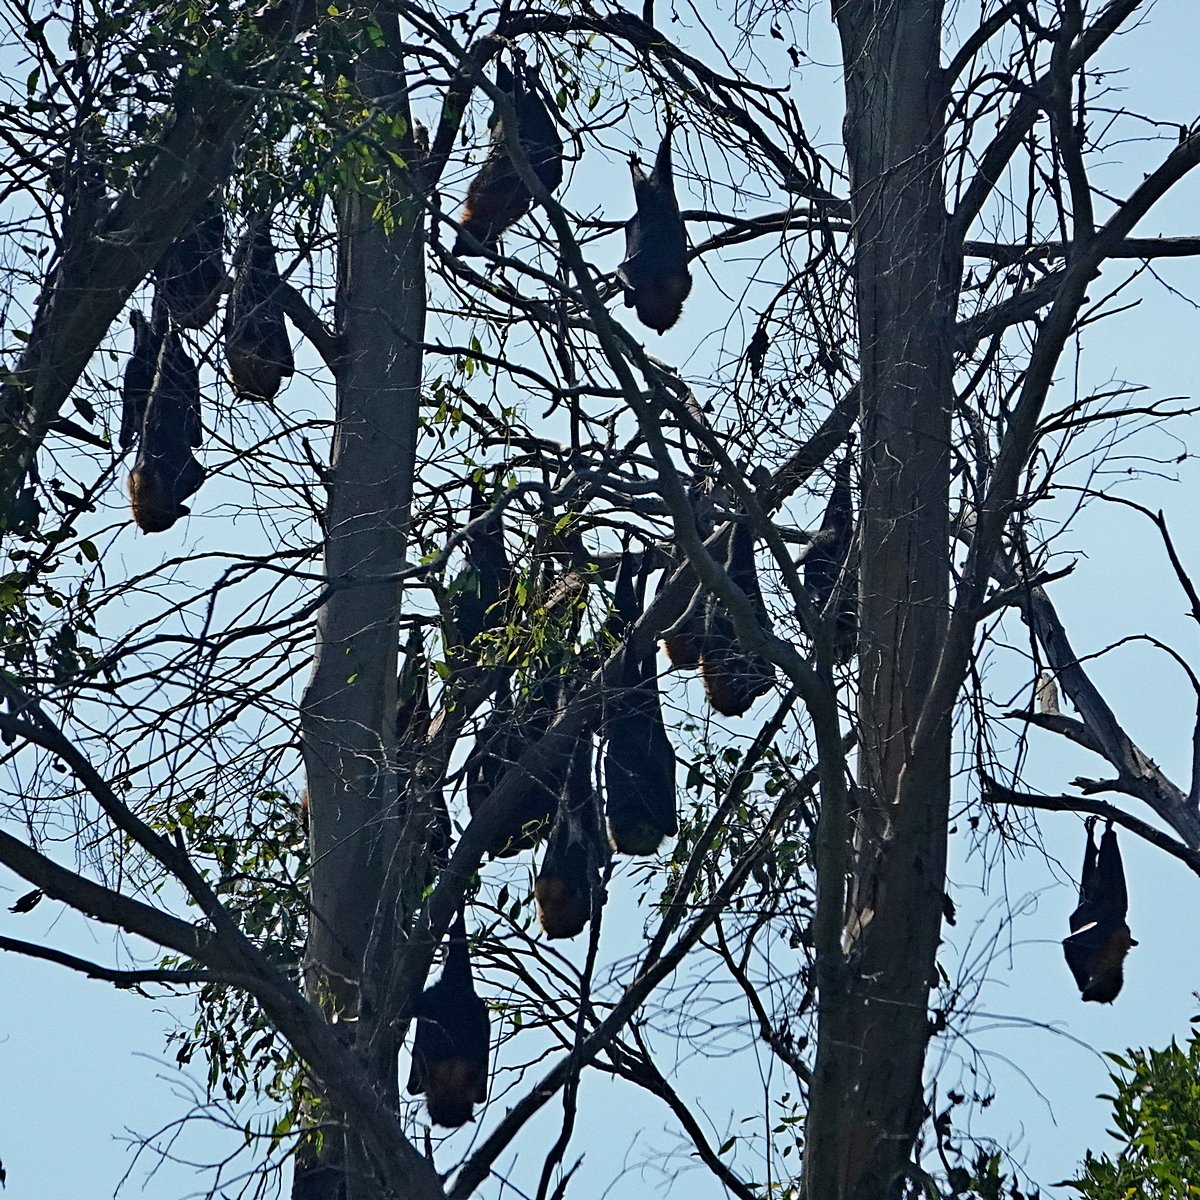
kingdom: Animalia
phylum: Chordata
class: Mammalia
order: Chiroptera
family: Pteropodidae
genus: Pteropus
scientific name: Pteropus poliocephalus
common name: Gray-headed flying fox
